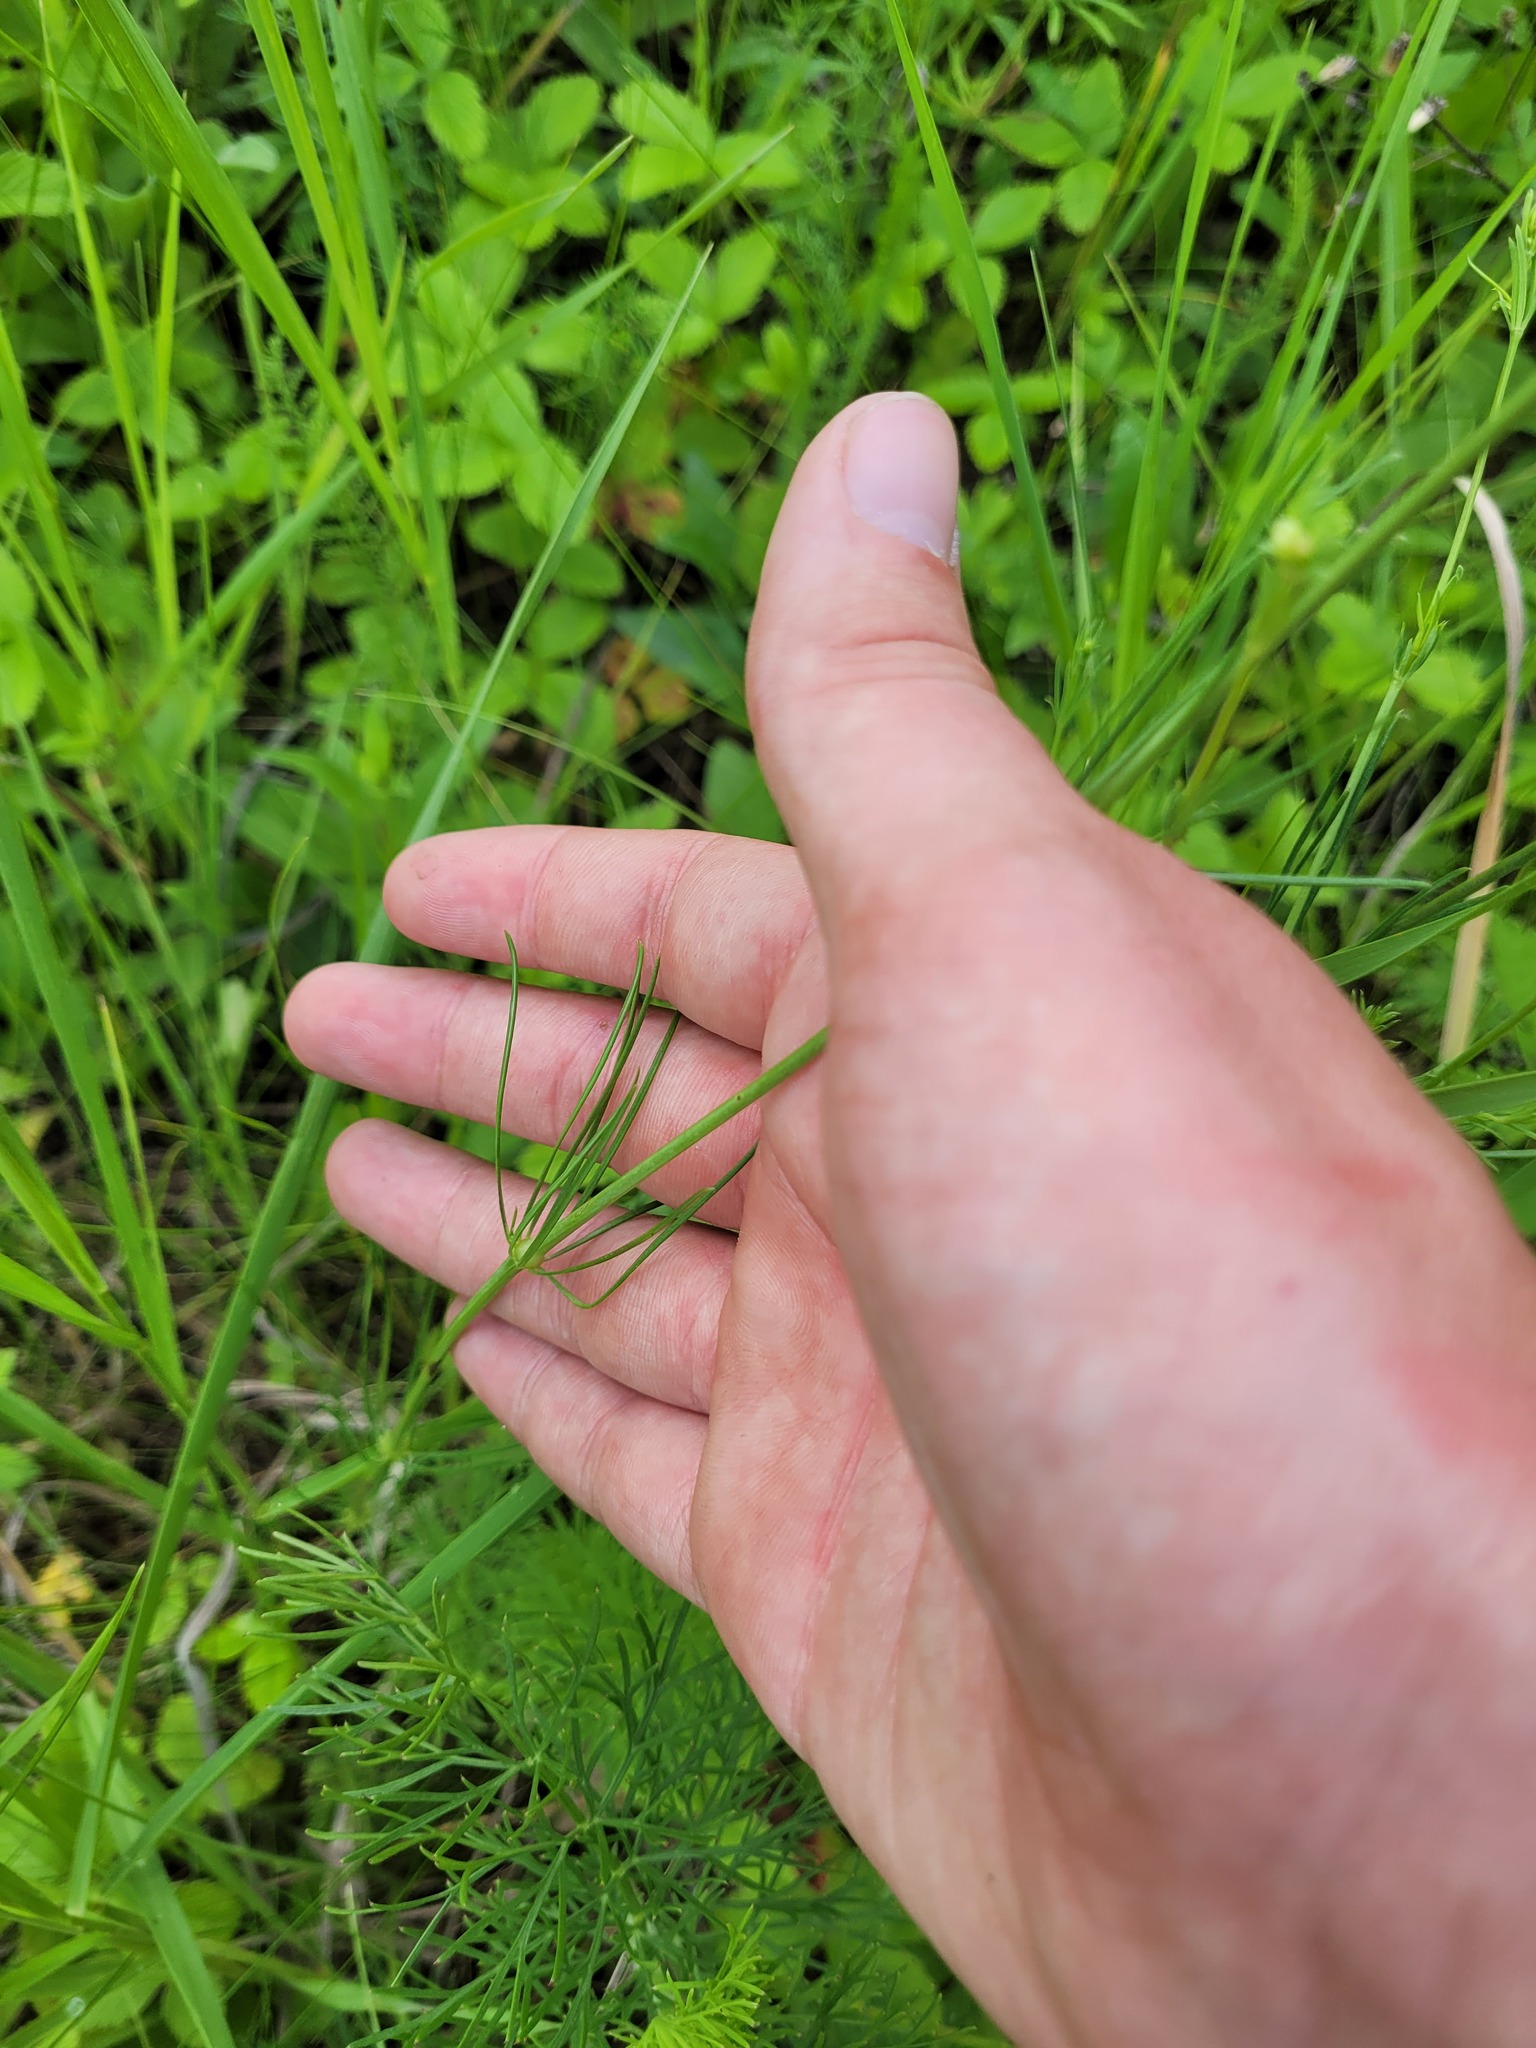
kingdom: Plantae
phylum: Tracheophyta
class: Magnoliopsida
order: Gentianales
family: Rubiaceae
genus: Galium
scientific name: Galium octonarium
